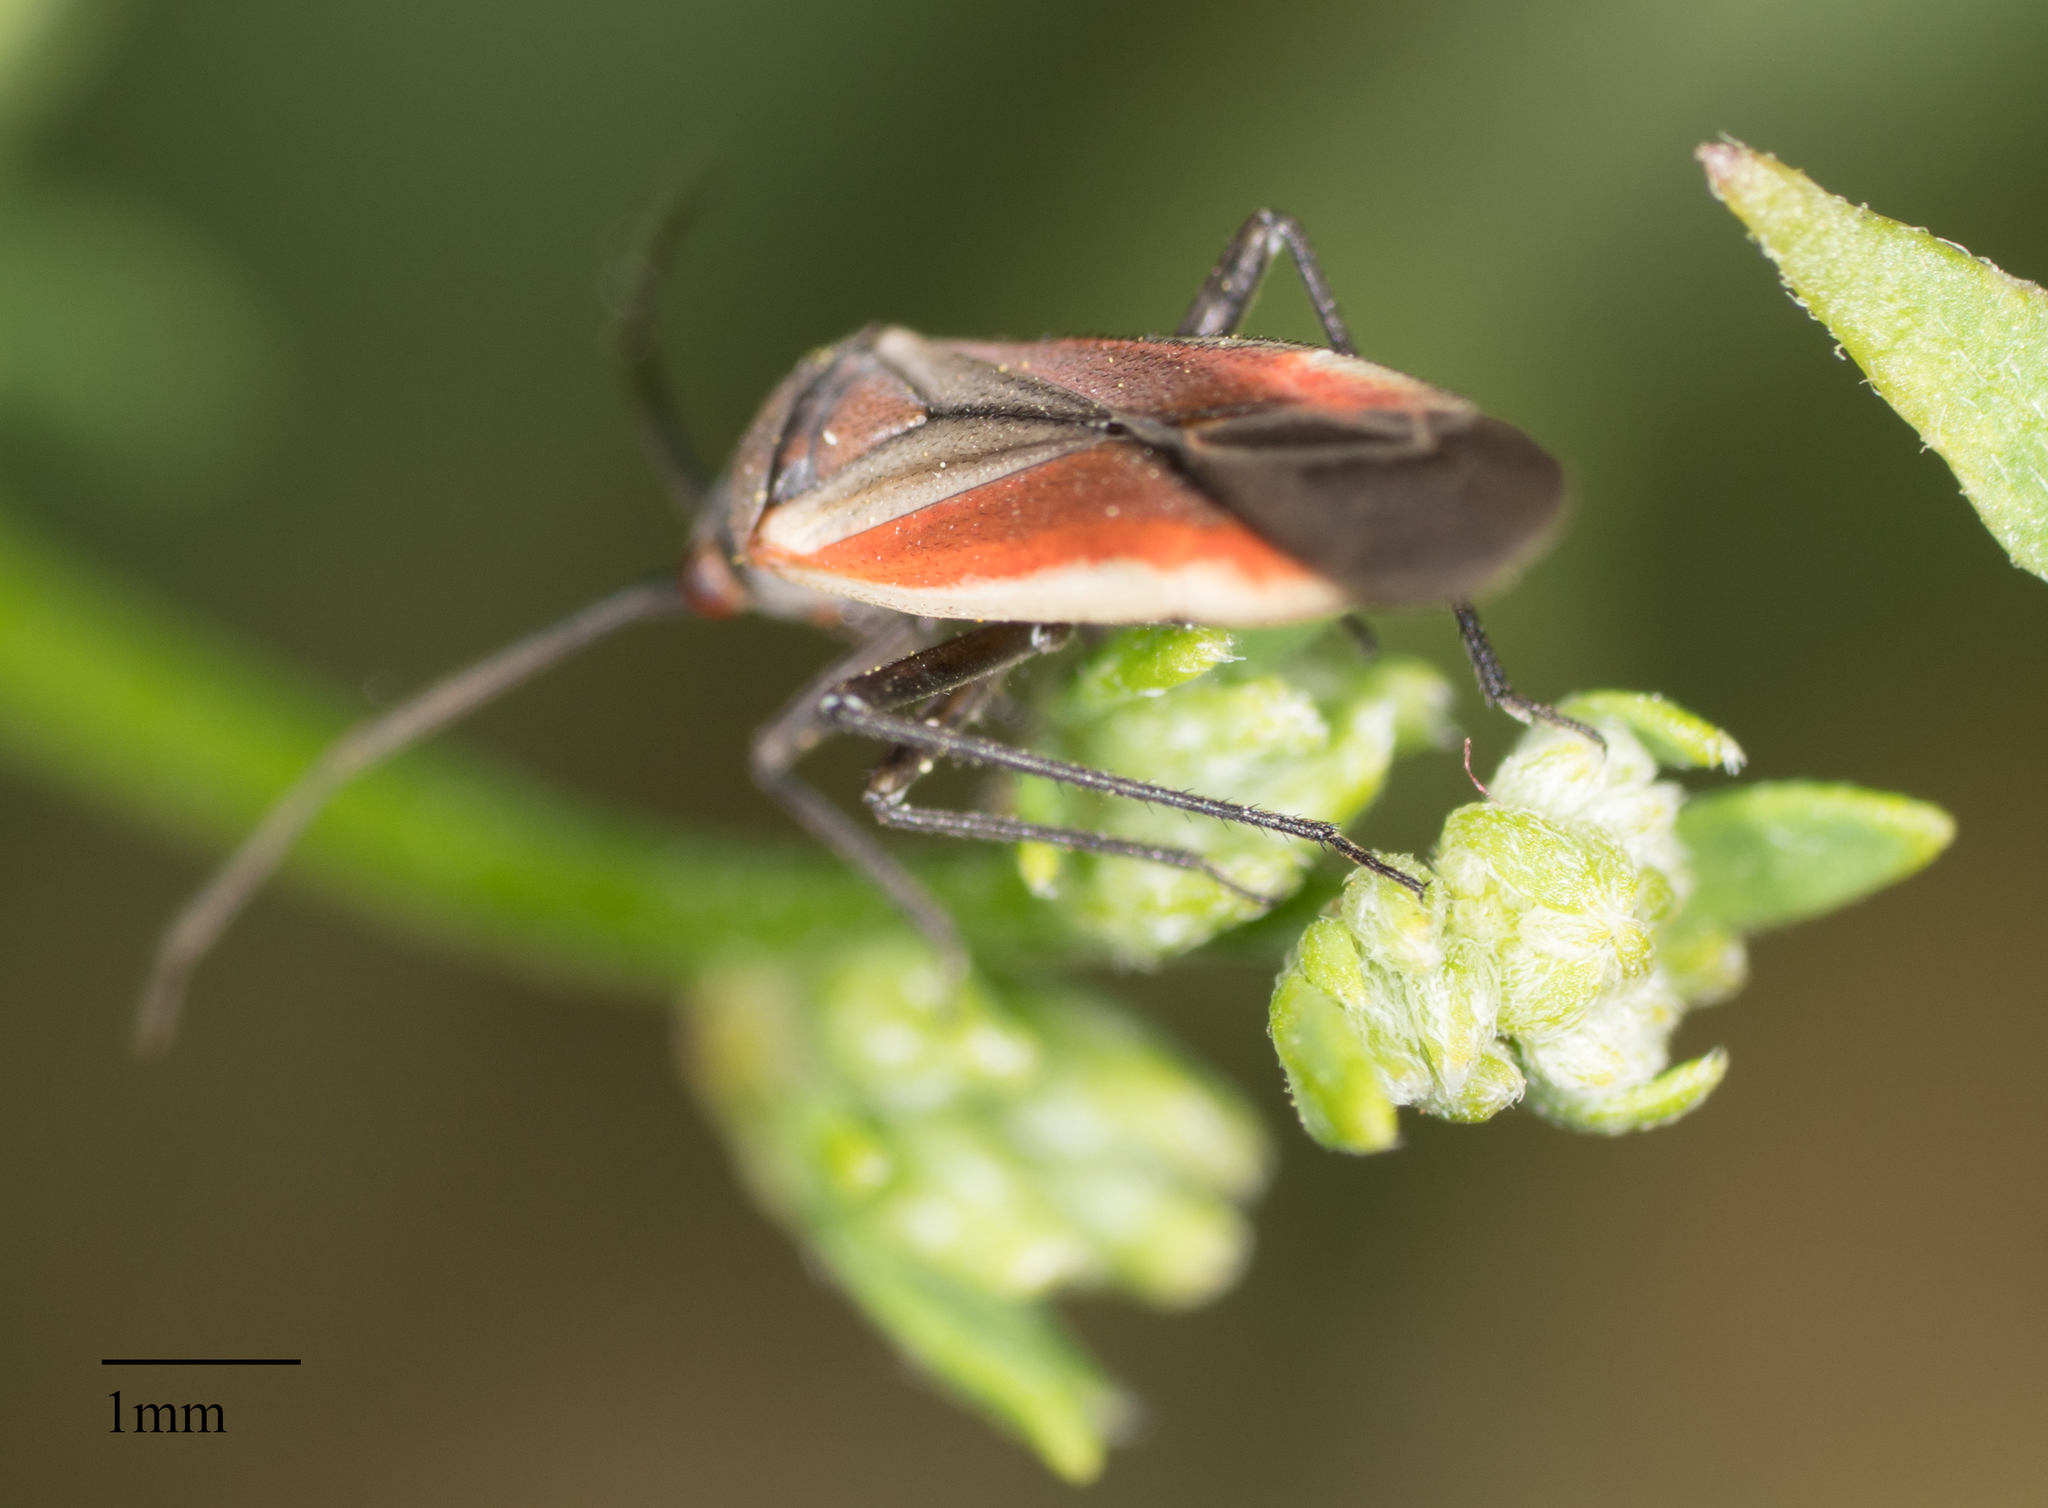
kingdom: Animalia
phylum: Arthropoda
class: Insecta
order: Hemiptera
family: Miridae
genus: Lopidea
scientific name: Lopidea marginata
